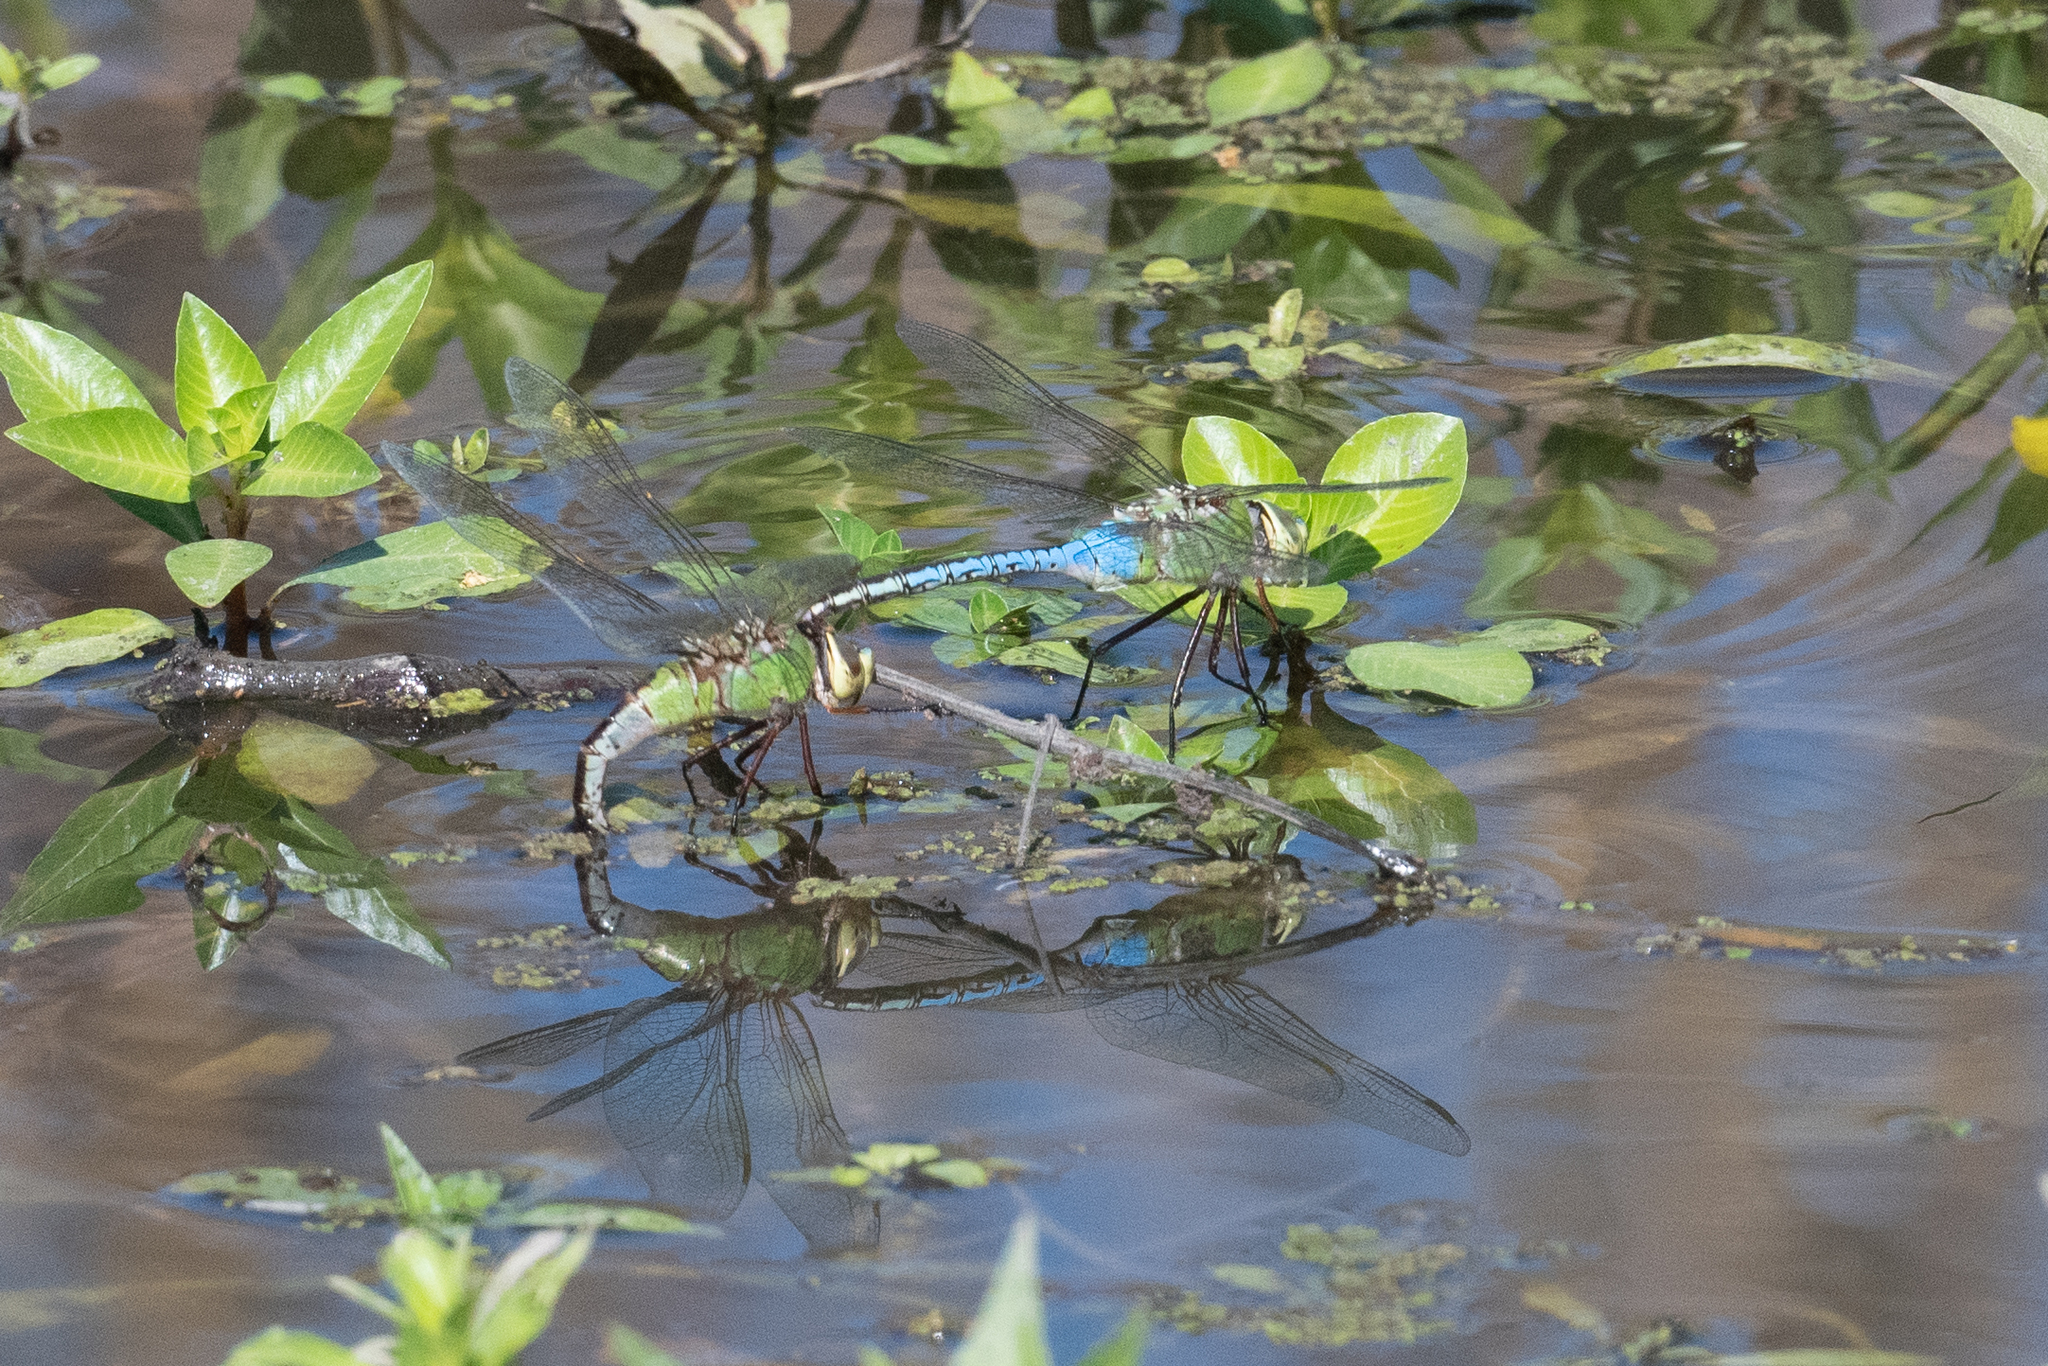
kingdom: Animalia
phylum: Arthropoda
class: Insecta
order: Odonata
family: Aeshnidae
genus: Anax
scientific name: Anax junius
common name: Common green darner
